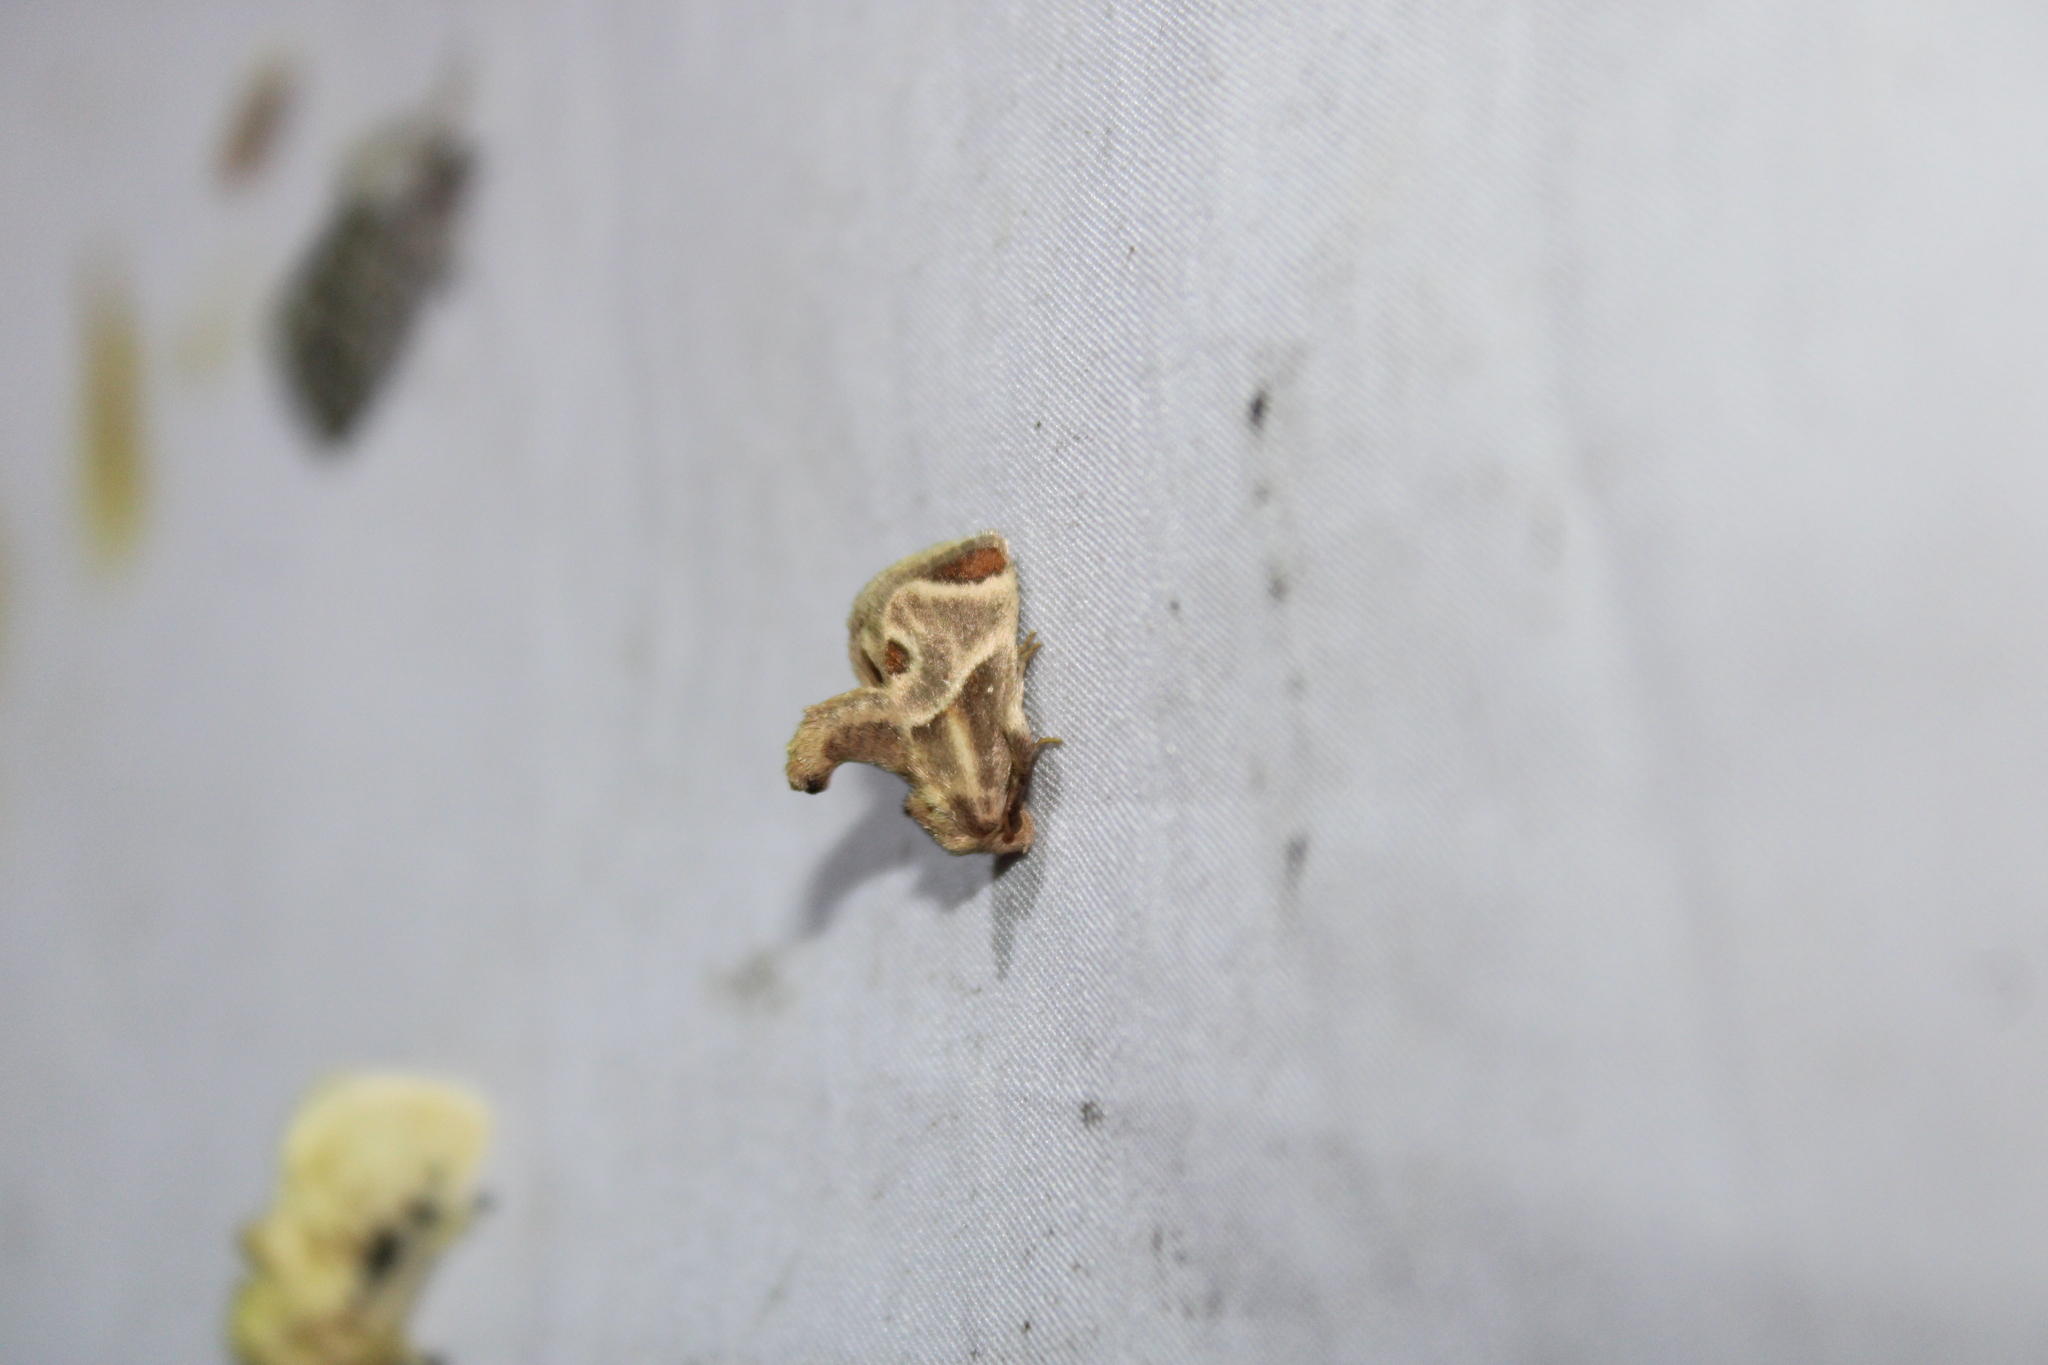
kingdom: Animalia
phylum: Arthropoda
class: Insecta
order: Lepidoptera
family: Limacodidae
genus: Apoda
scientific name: Apoda biguttata
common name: Shagreened slug moth
